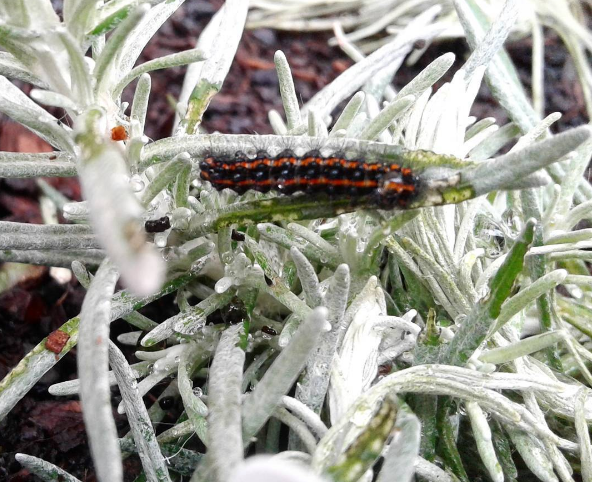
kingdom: Animalia
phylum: Arthropoda
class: Insecta
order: Lepidoptera
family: Erebidae
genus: Nyctemera
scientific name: Nyctemera annulatum
